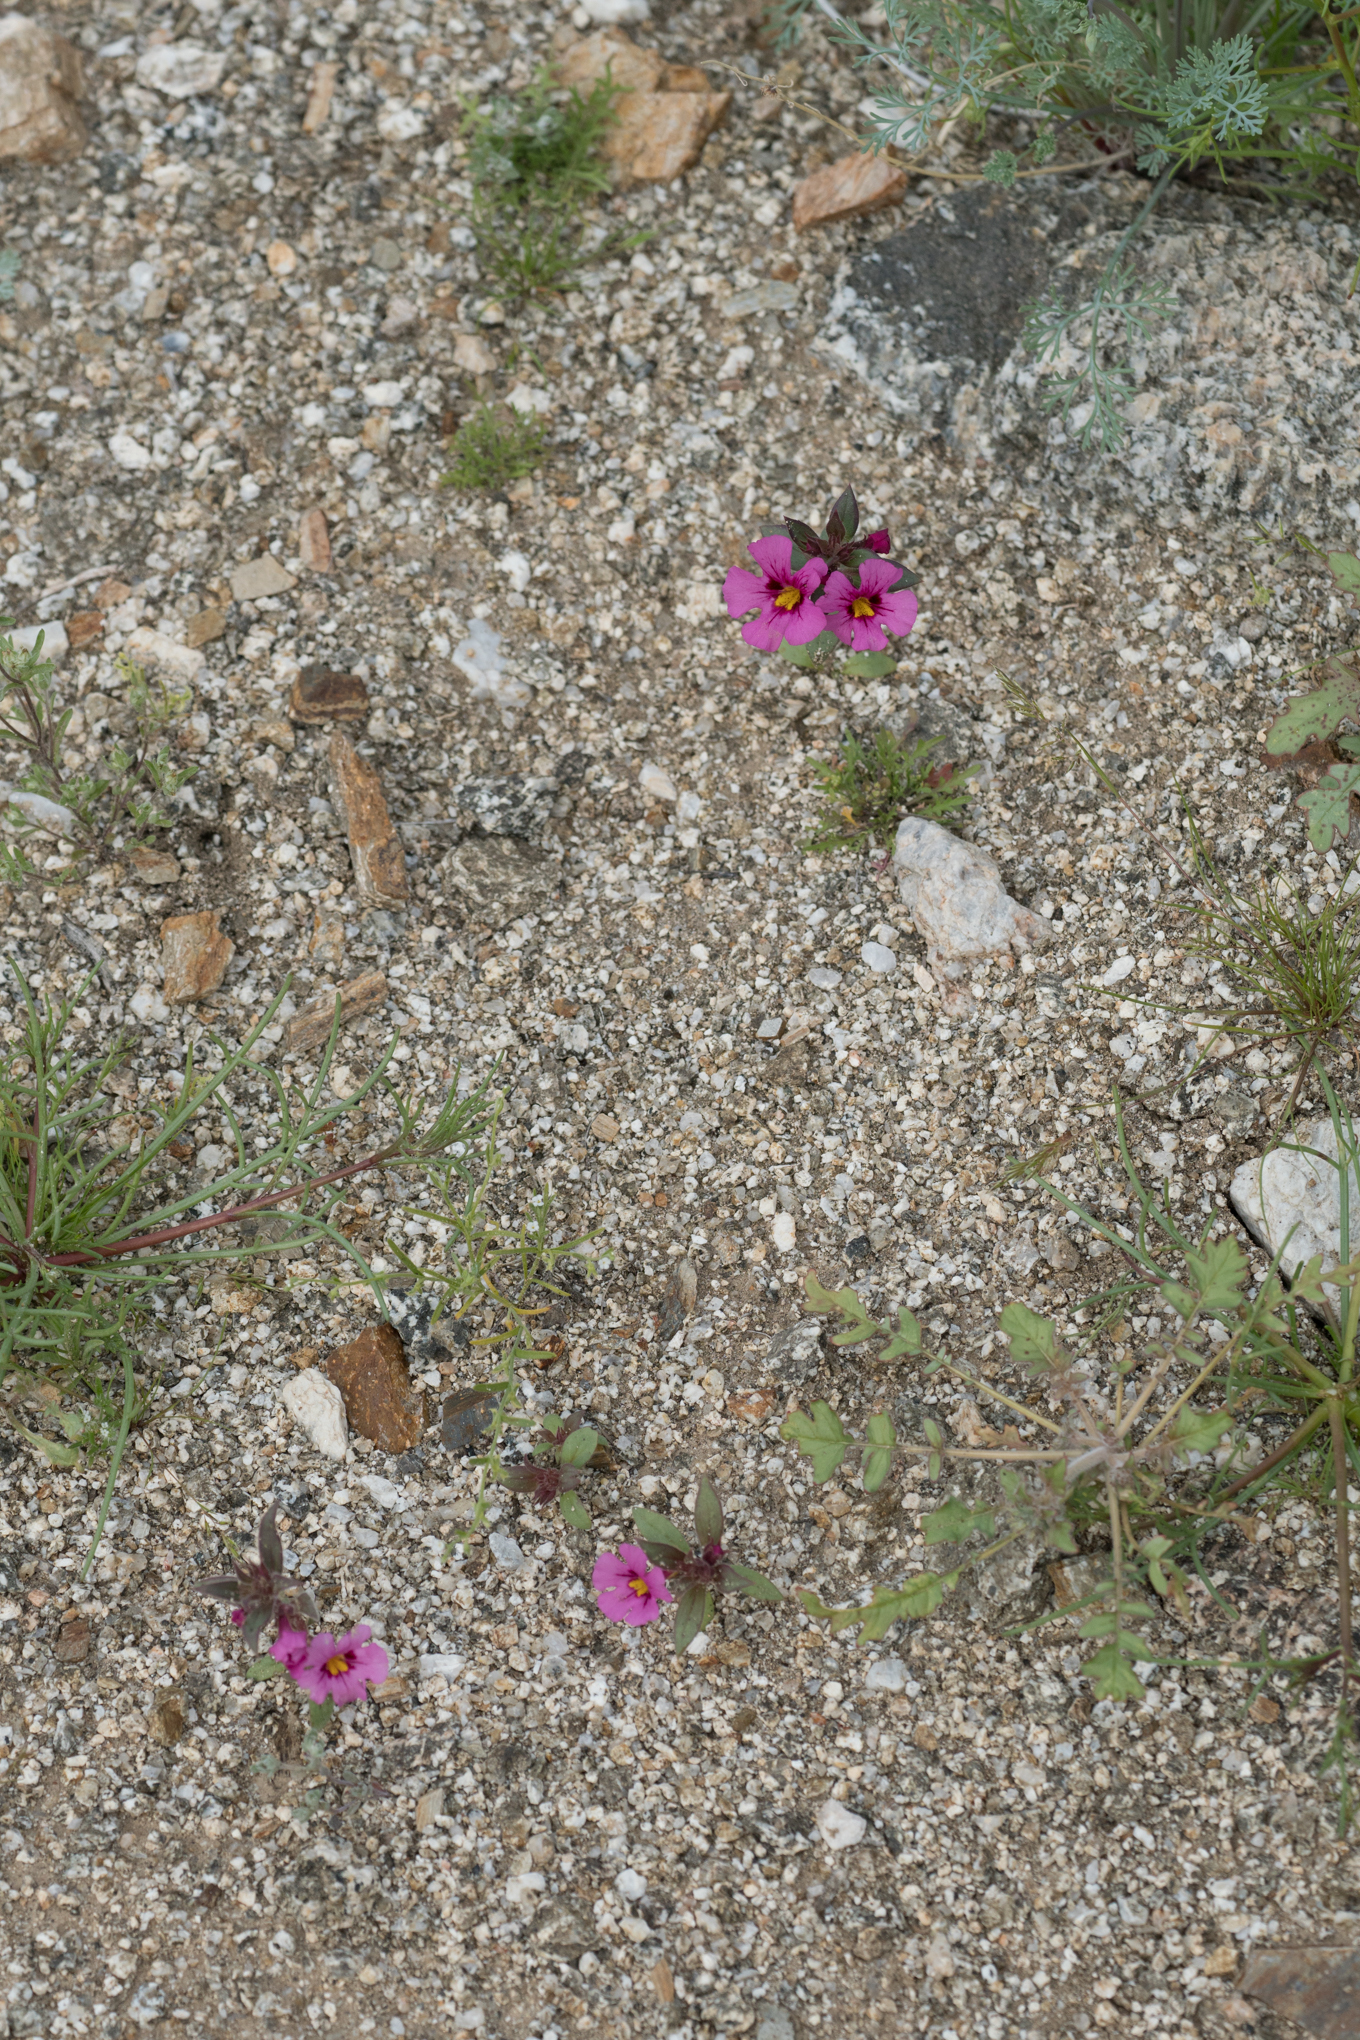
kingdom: Plantae
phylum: Tracheophyta
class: Magnoliopsida
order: Lamiales
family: Phrymaceae
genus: Diplacus
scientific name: Diplacus bigelovii
